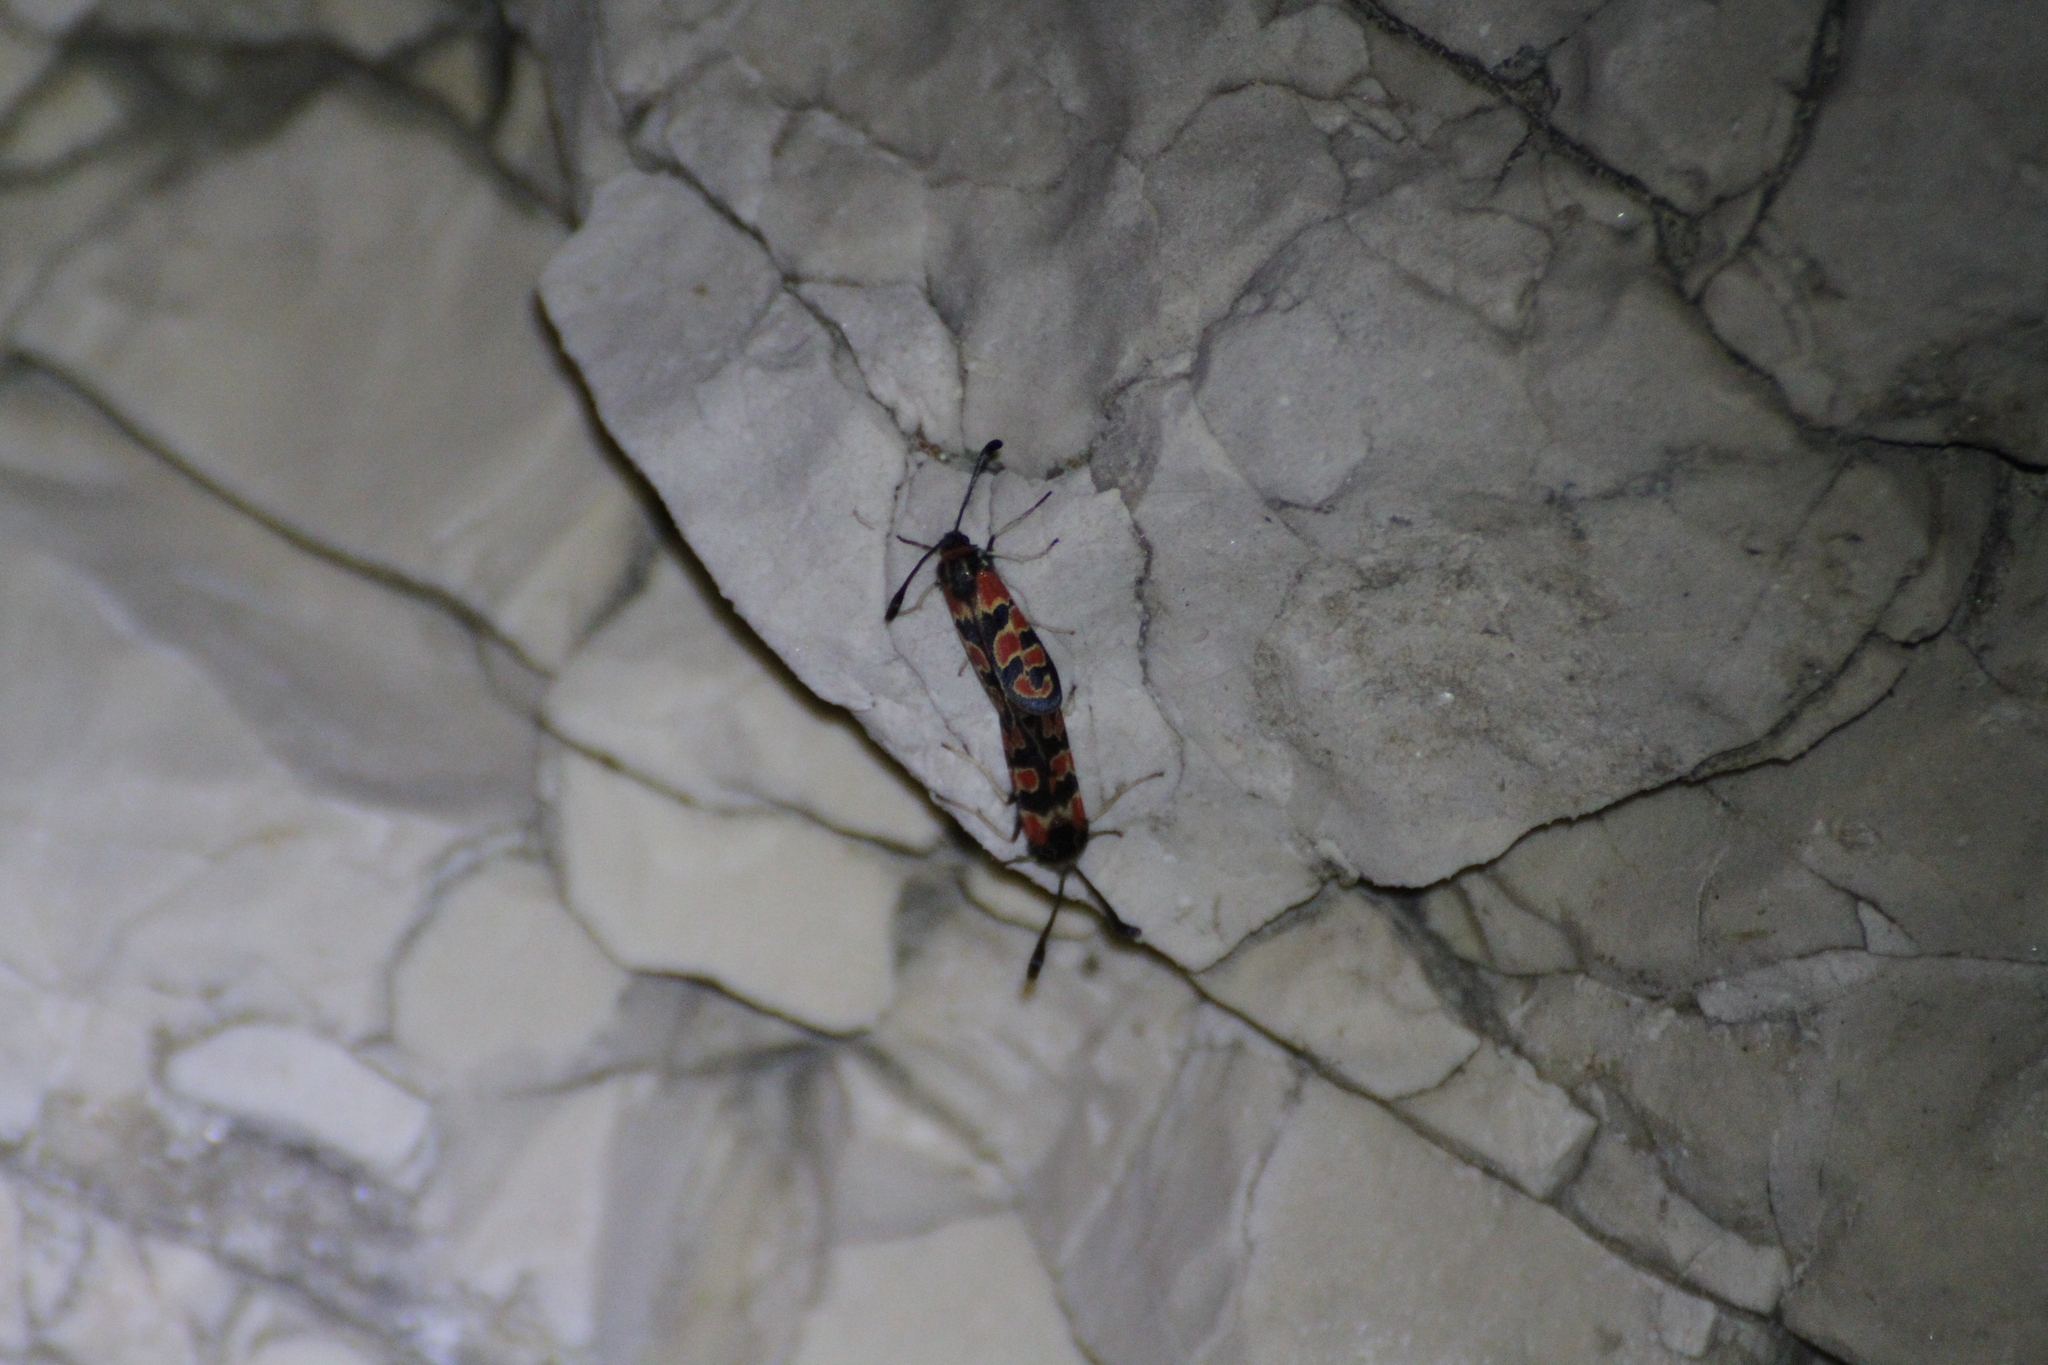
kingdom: Animalia
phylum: Arthropoda
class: Insecta
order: Lepidoptera
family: Zygaenidae
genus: Zygaena
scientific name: Zygaena fausta
